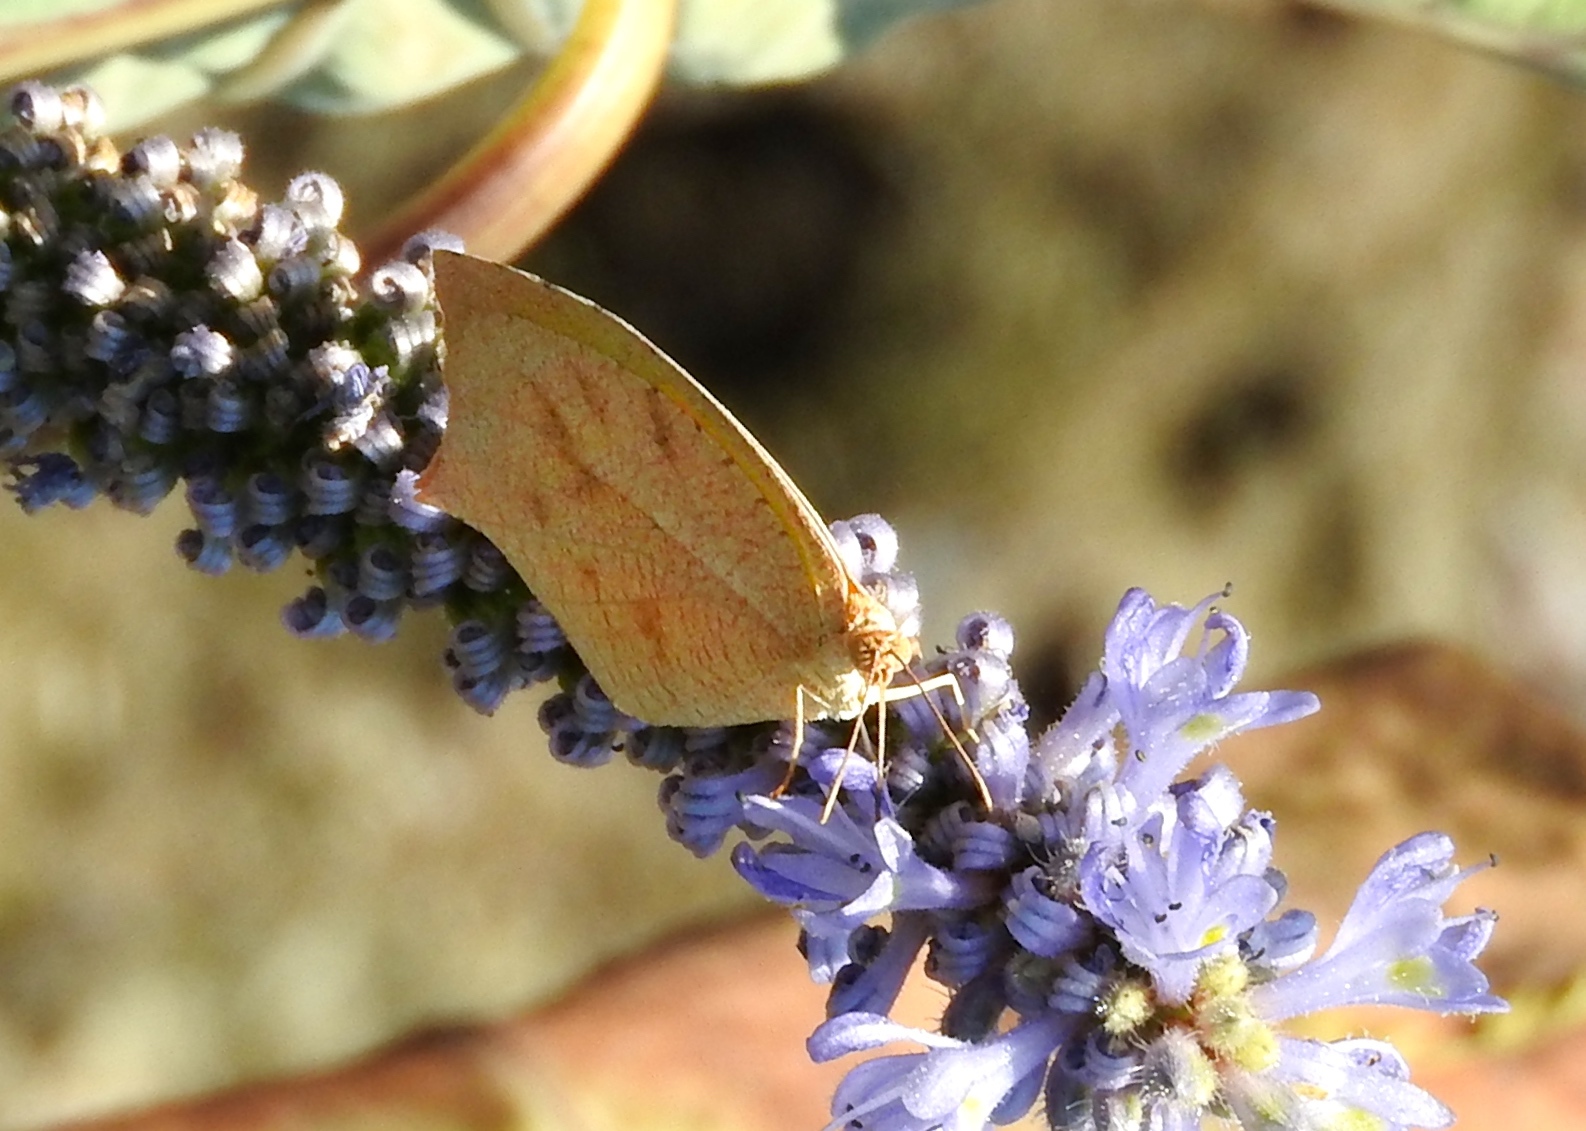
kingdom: Animalia
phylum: Arthropoda
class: Insecta
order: Lepidoptera
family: Pieridae
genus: Pyrisitia
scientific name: Pyrisitia proterpia
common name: Tailed orange
